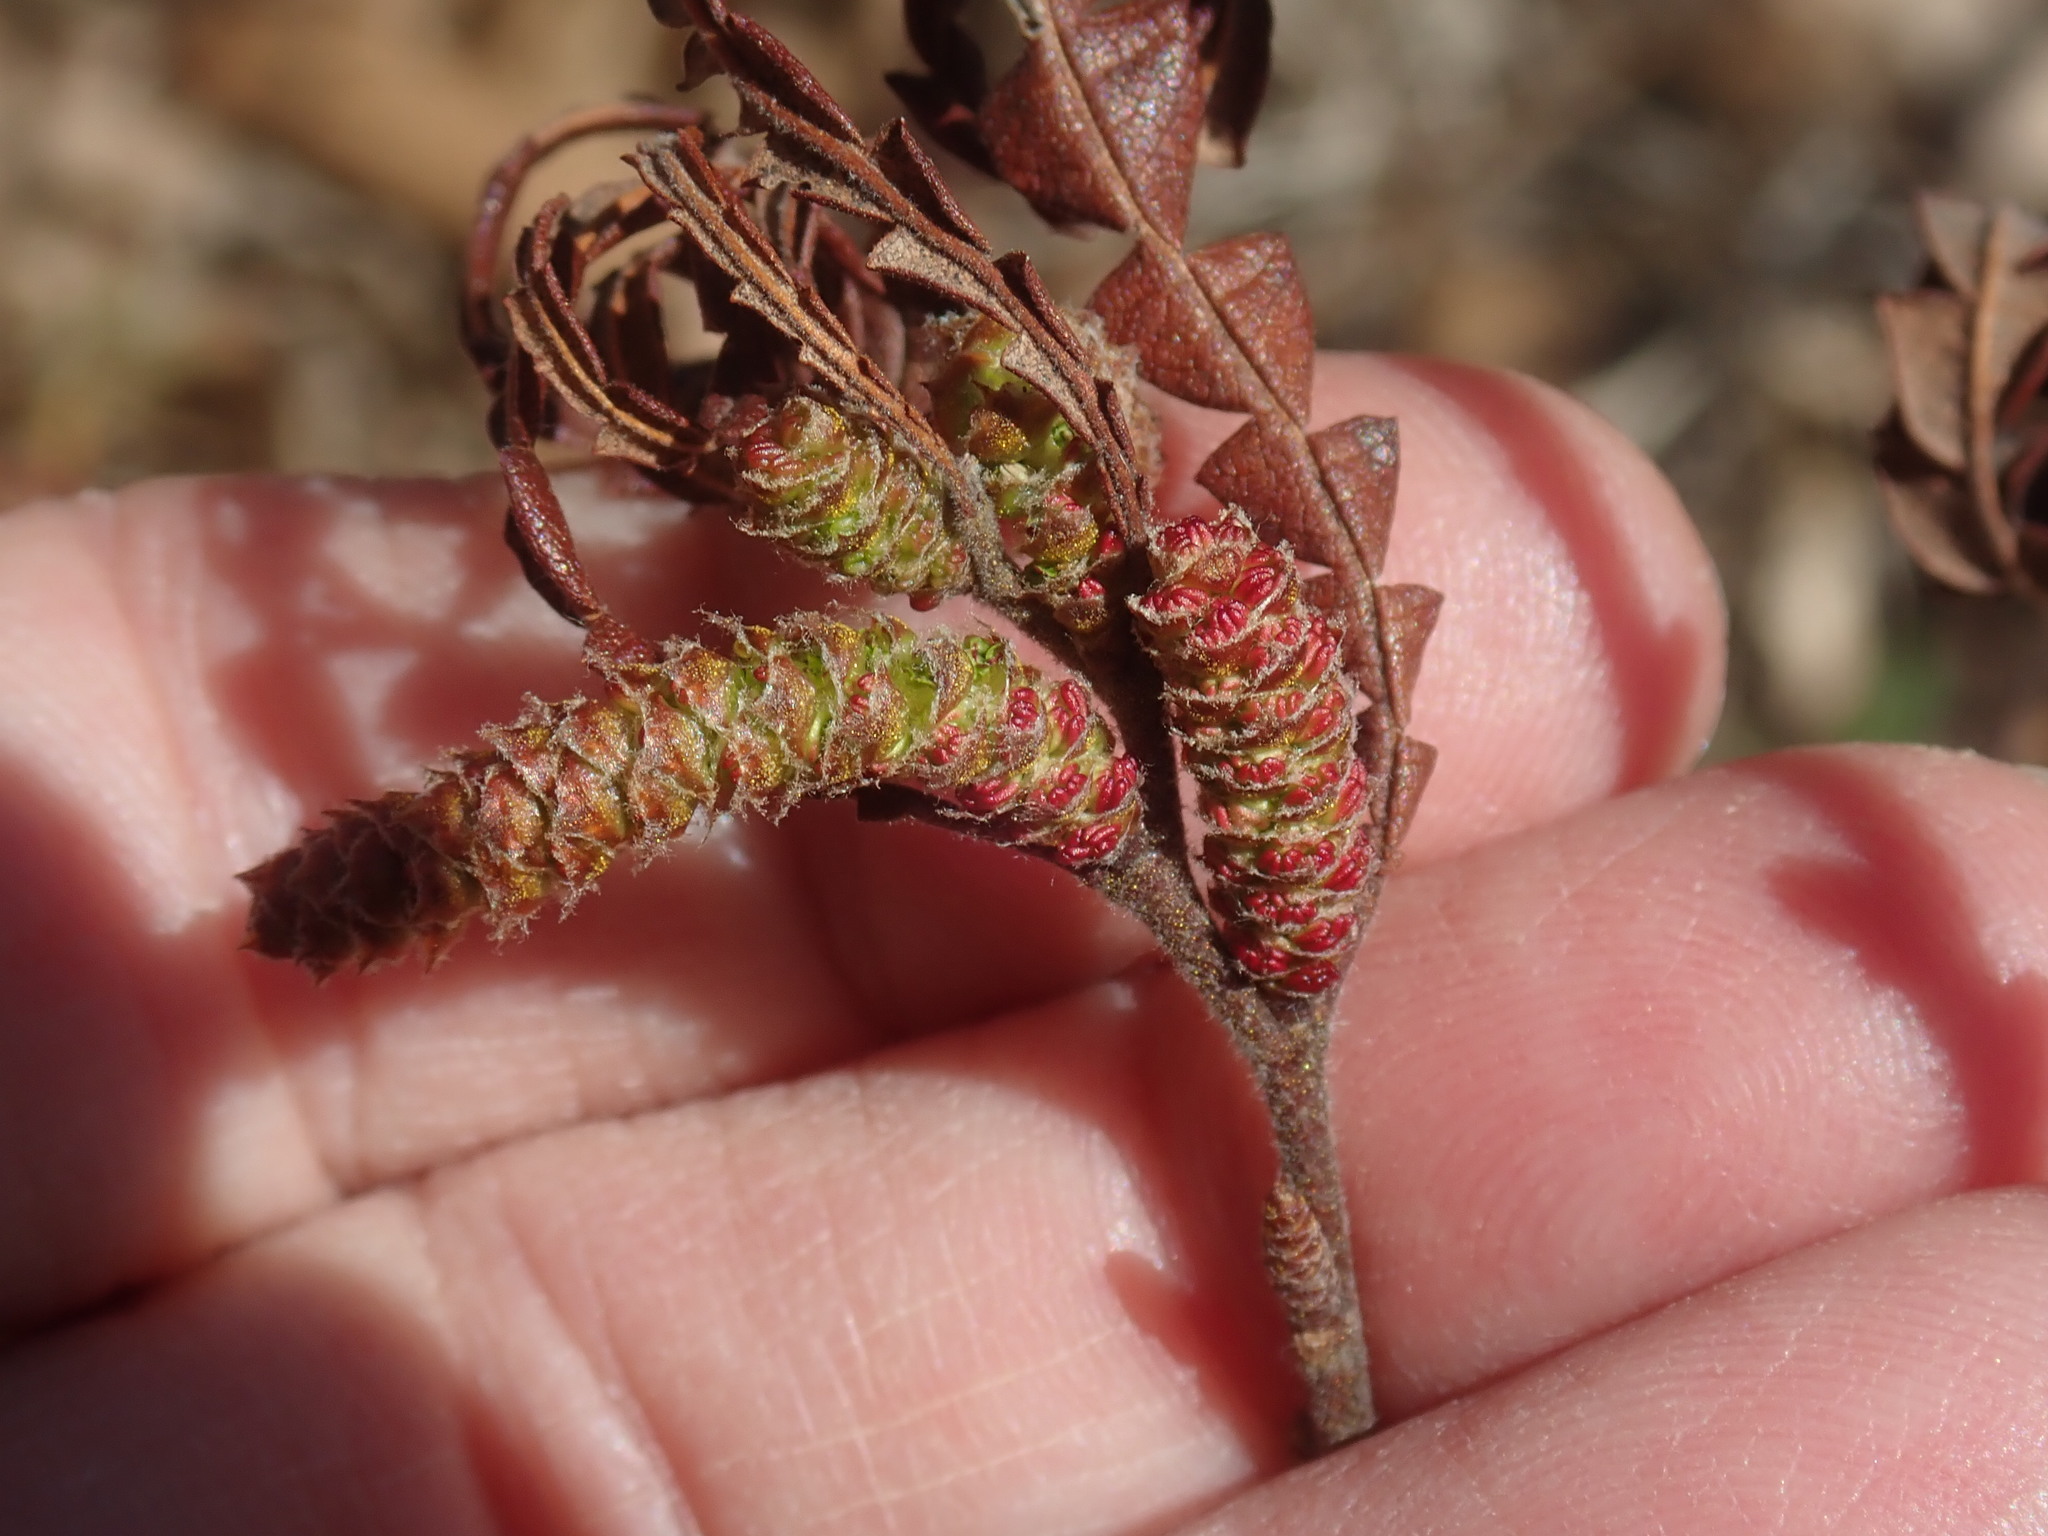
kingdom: Plantae
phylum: Tracheophyta
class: Magnoliopsida
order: Fagales
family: Myricaceae
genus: Comptonia
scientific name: Comptonia peregrina
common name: Sweet-fern
